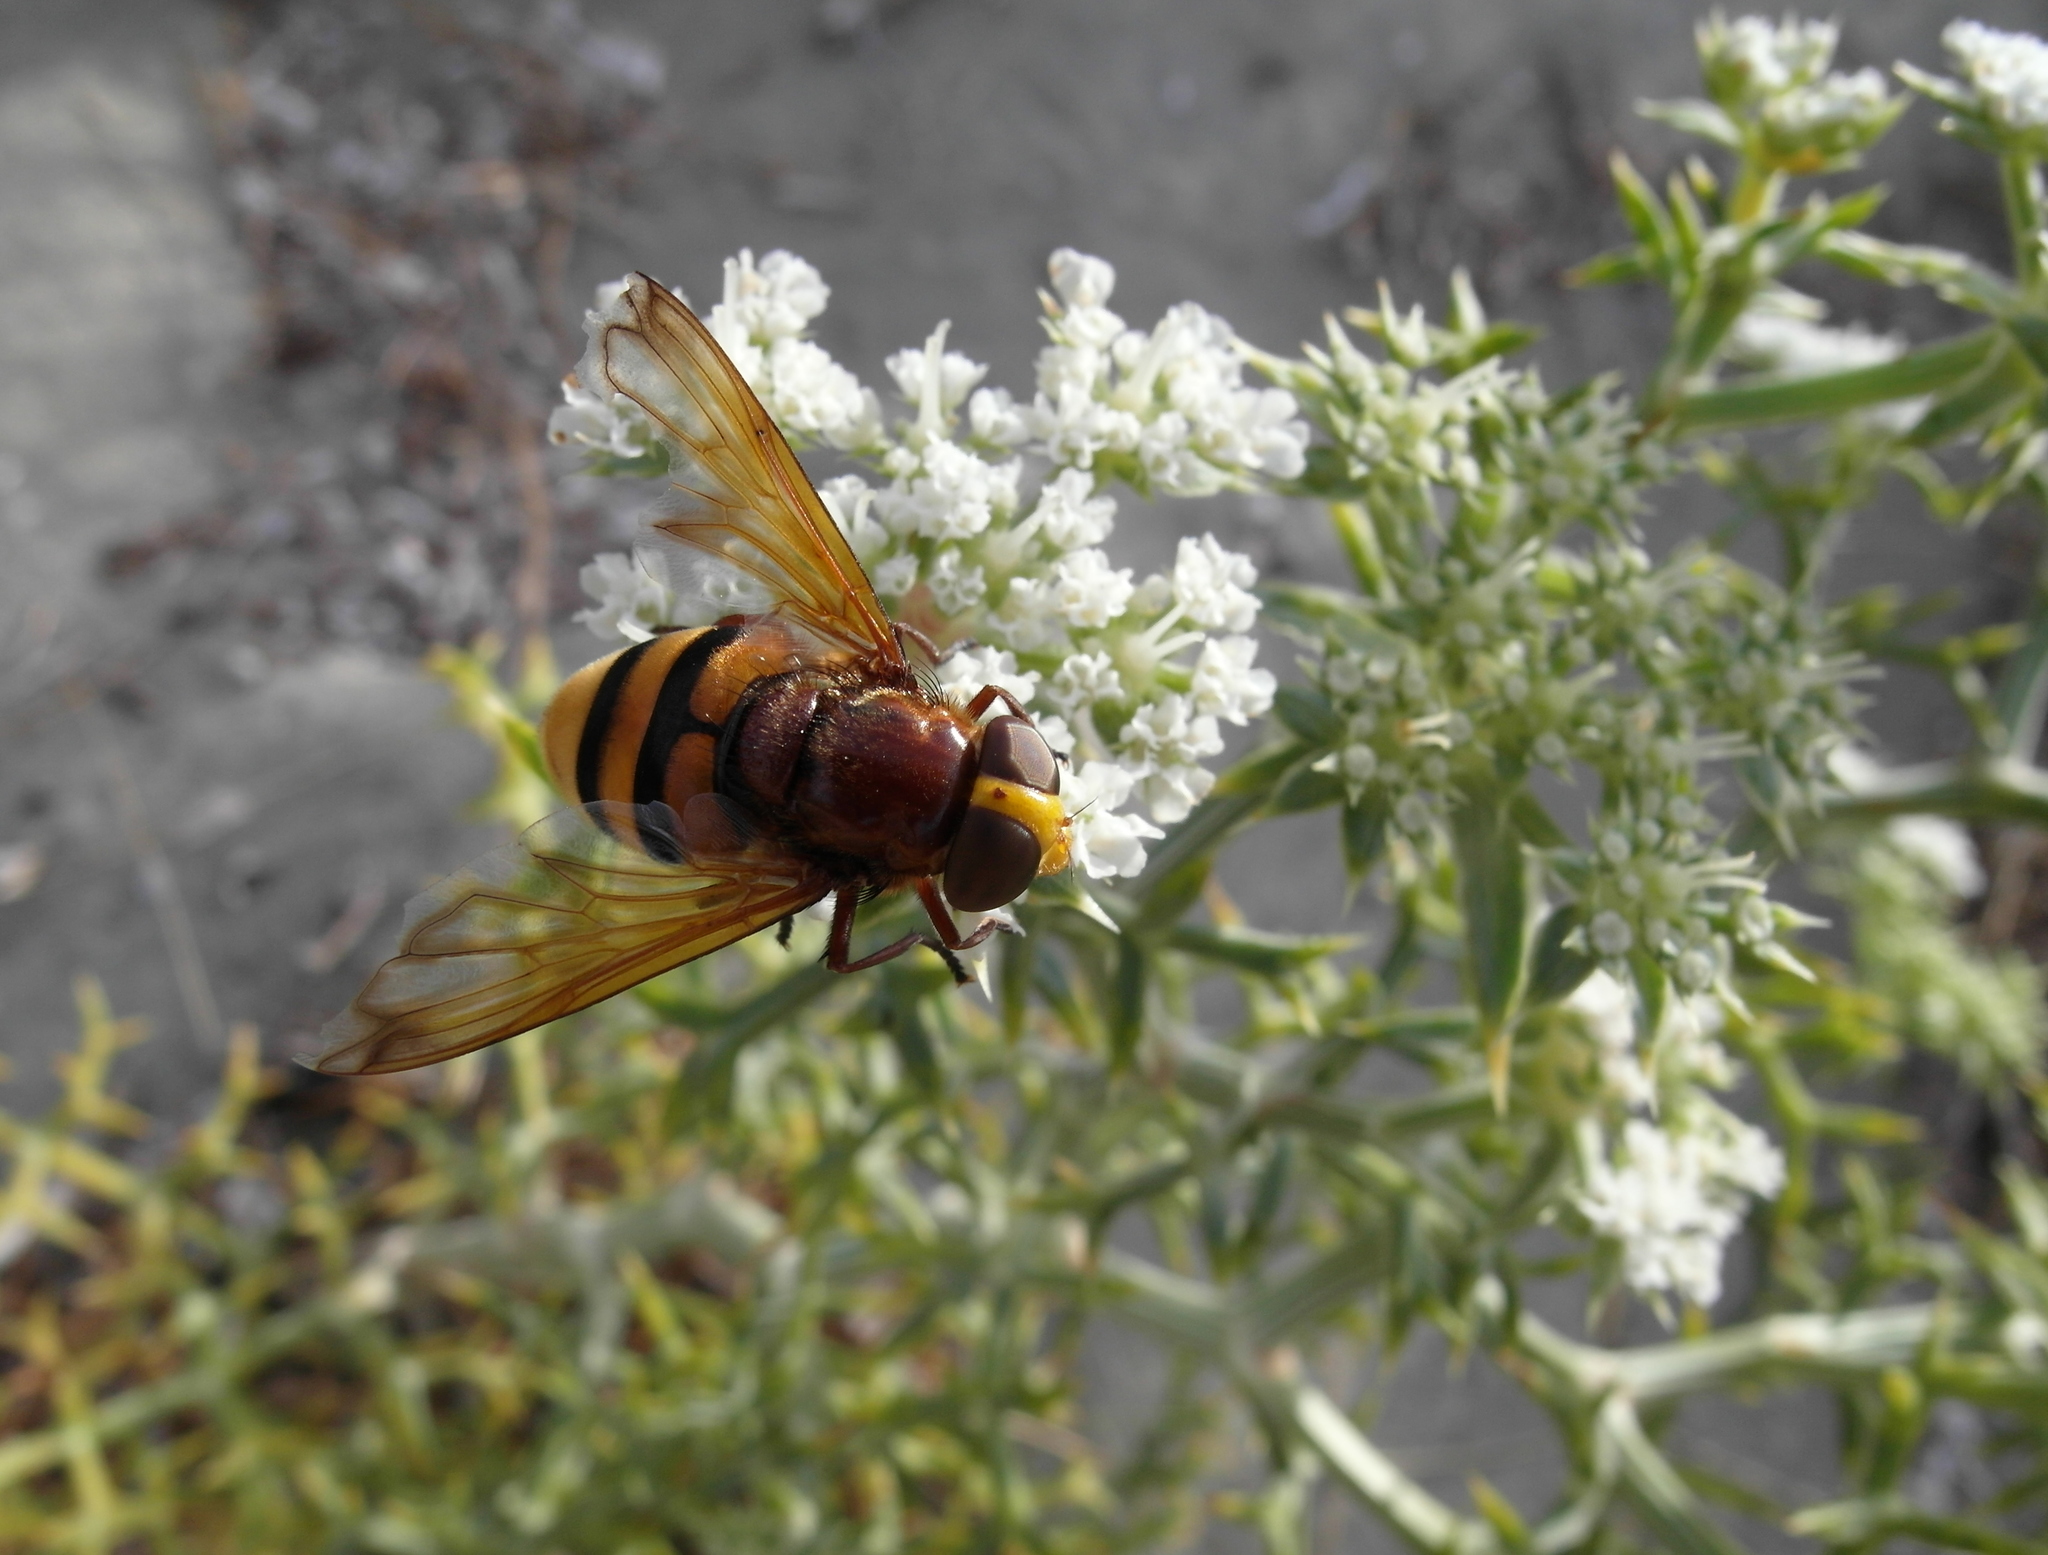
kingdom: Animalia
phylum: Arthropoda
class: Insecta
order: Diptera
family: Syrphidae
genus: Volucella
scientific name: Volucella zonaria
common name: Hornet hoverfly
